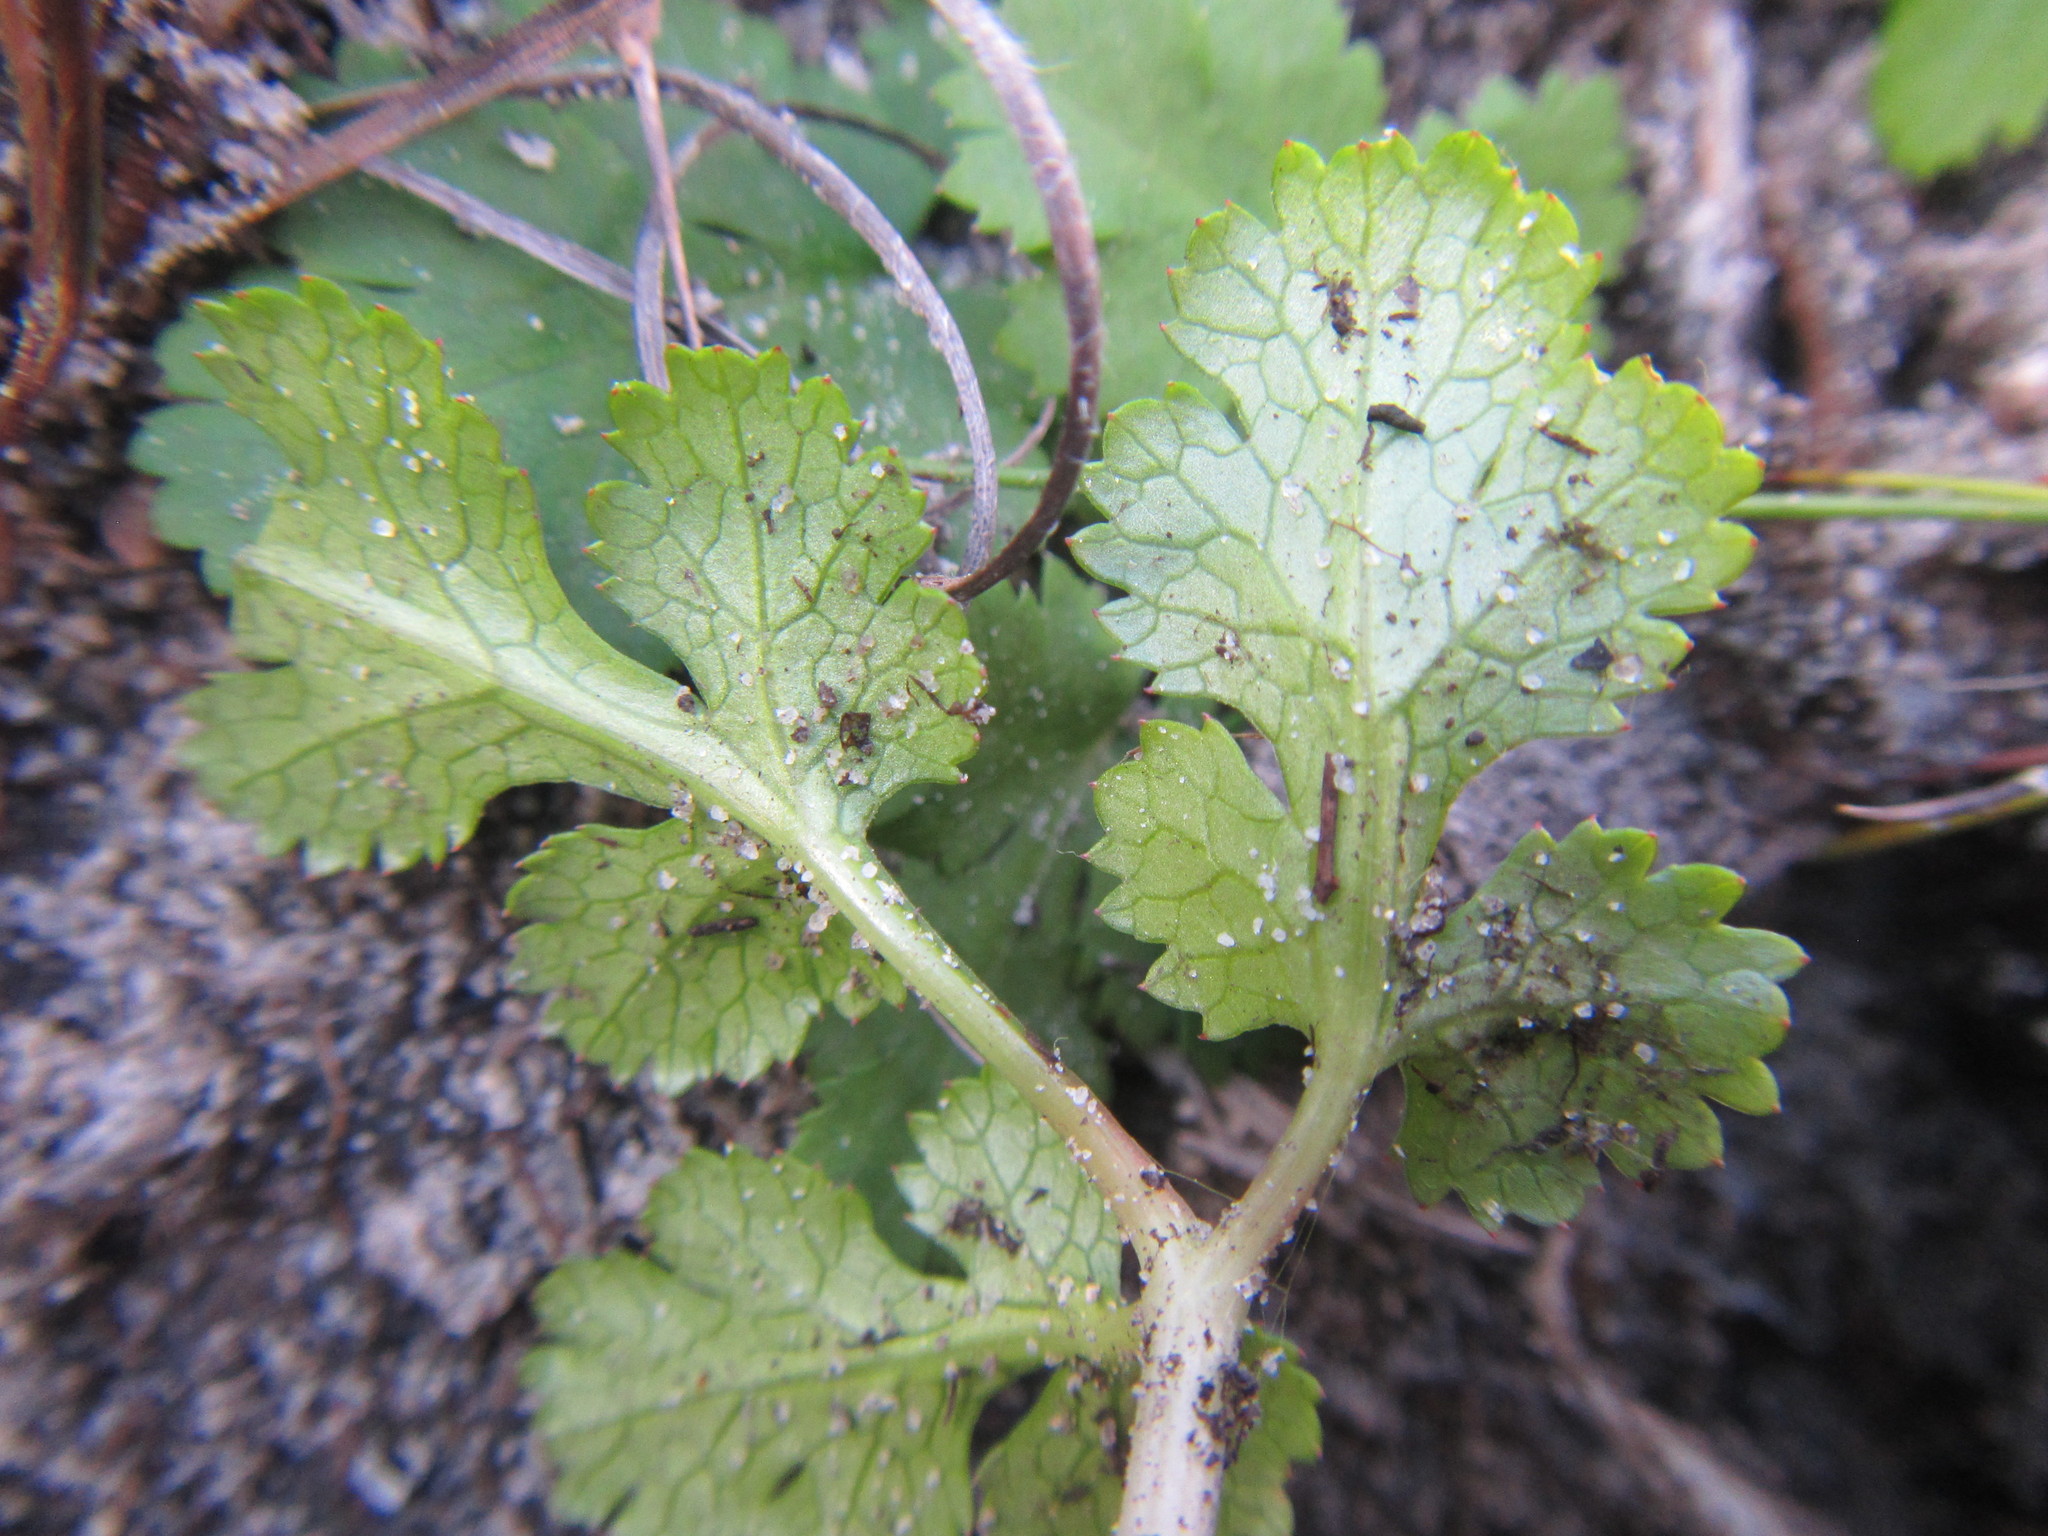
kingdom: Plantae
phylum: Tracheophyta
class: Magnoliopsida
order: Apiales
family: Apiaceae
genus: Chamarea
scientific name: Chamarea gracillima
